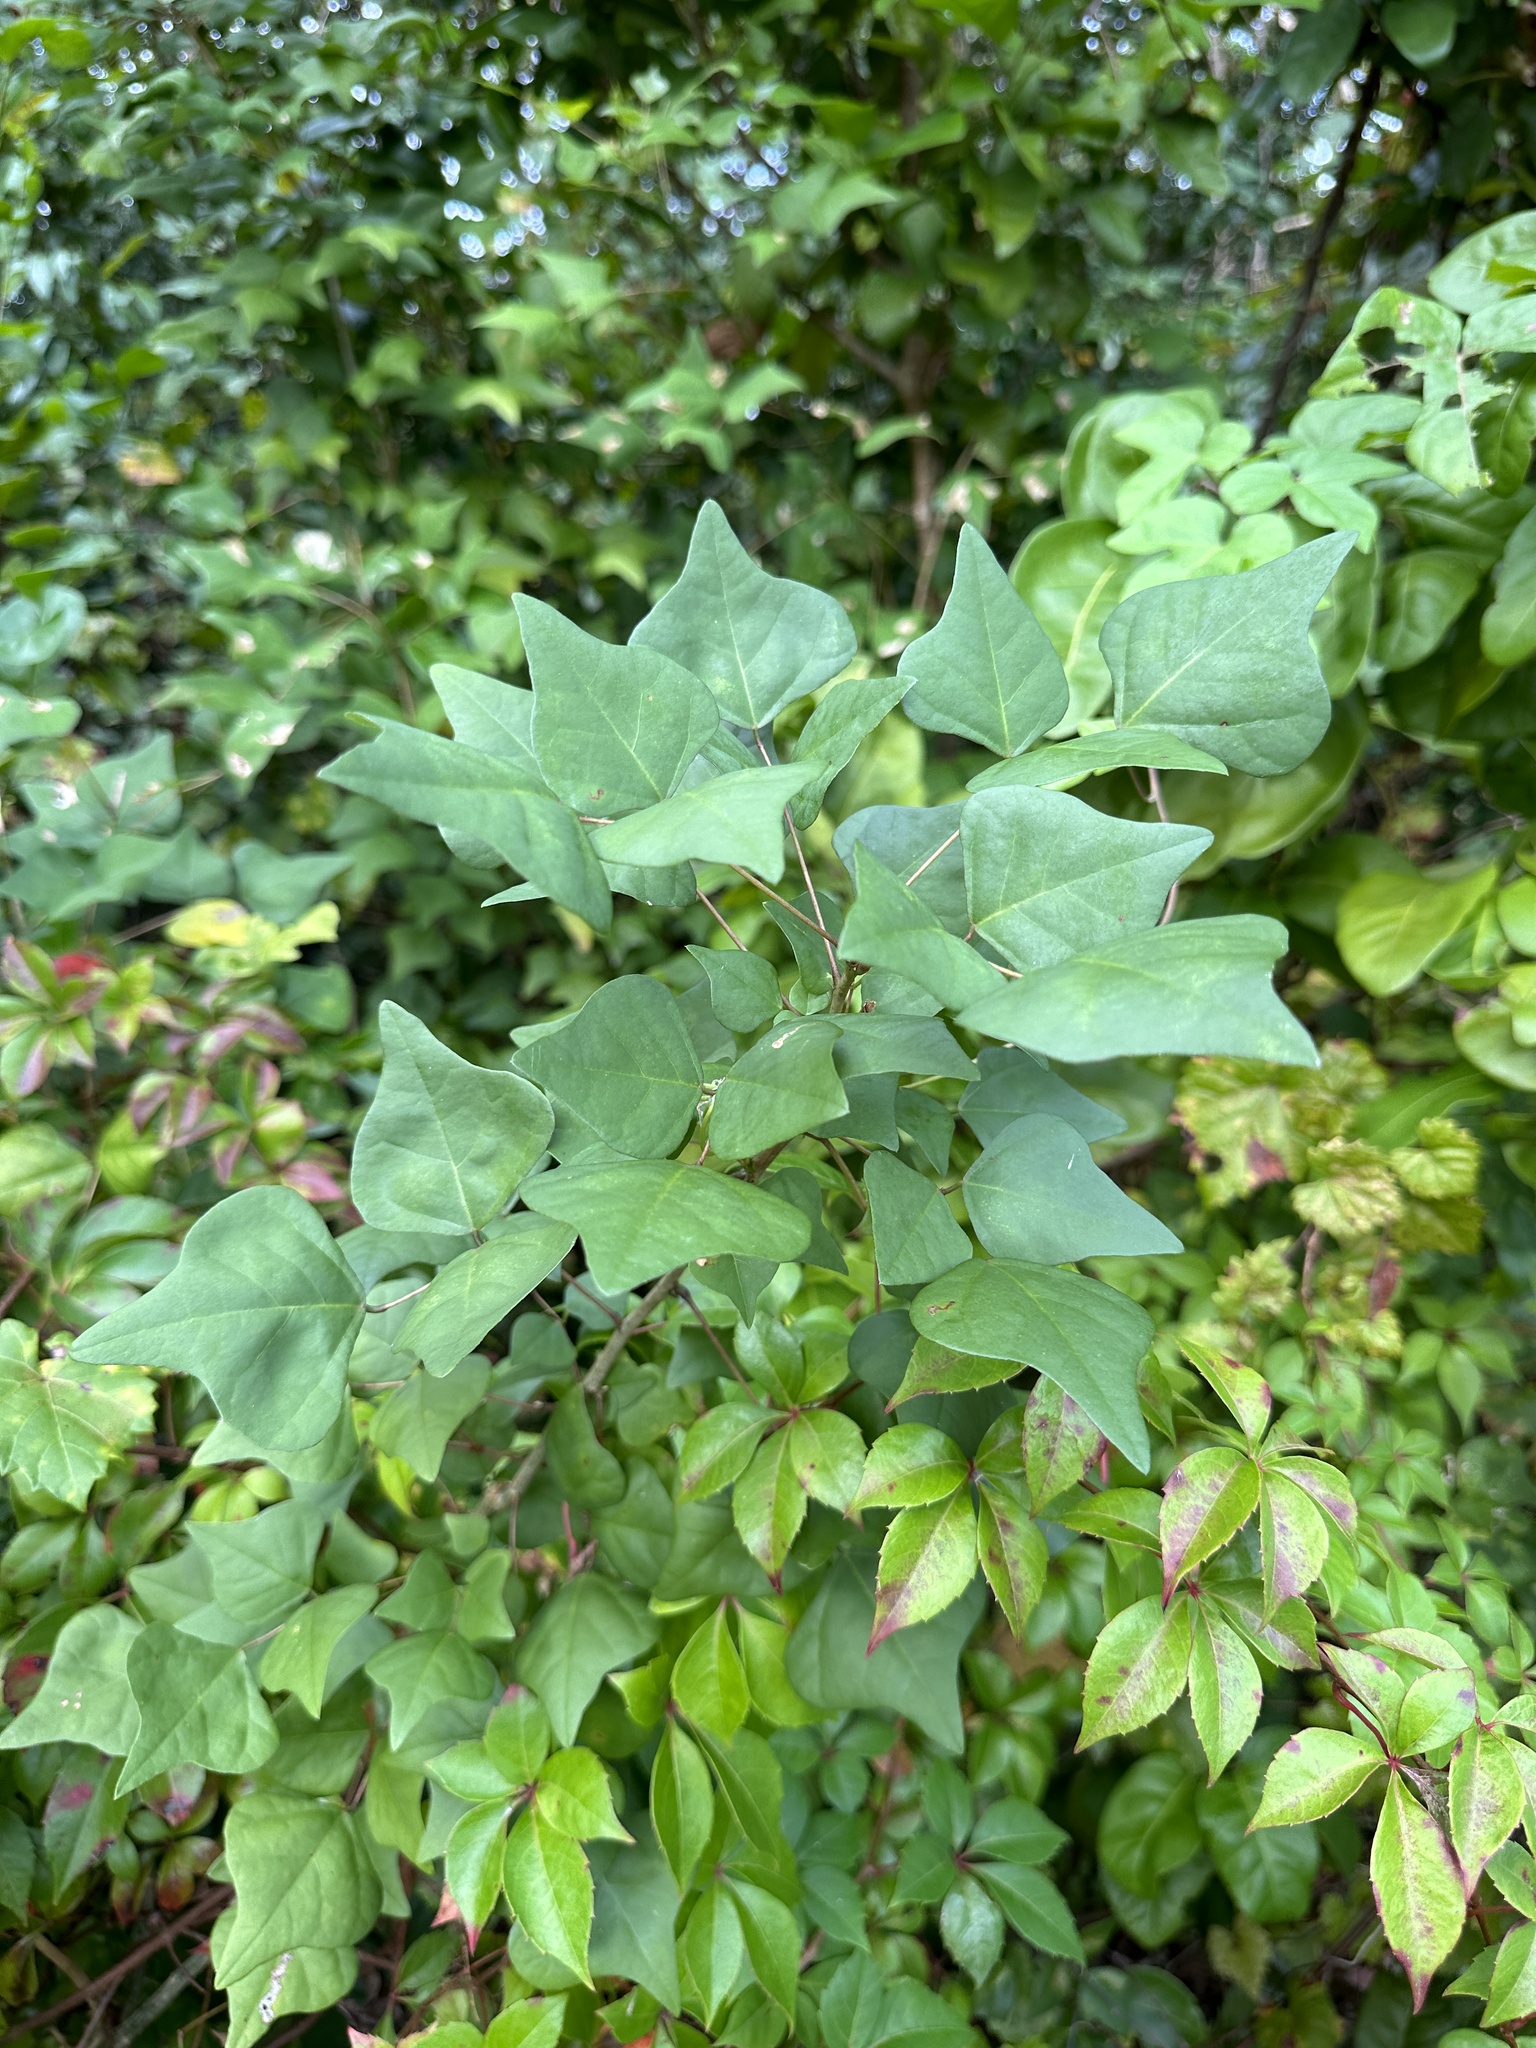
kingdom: Plantae
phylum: Tracheophyta
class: Magnoliopsida
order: Fabales
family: Fabaceae
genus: Erythrina
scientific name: Erythrina herbacea
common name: Coral-bean
